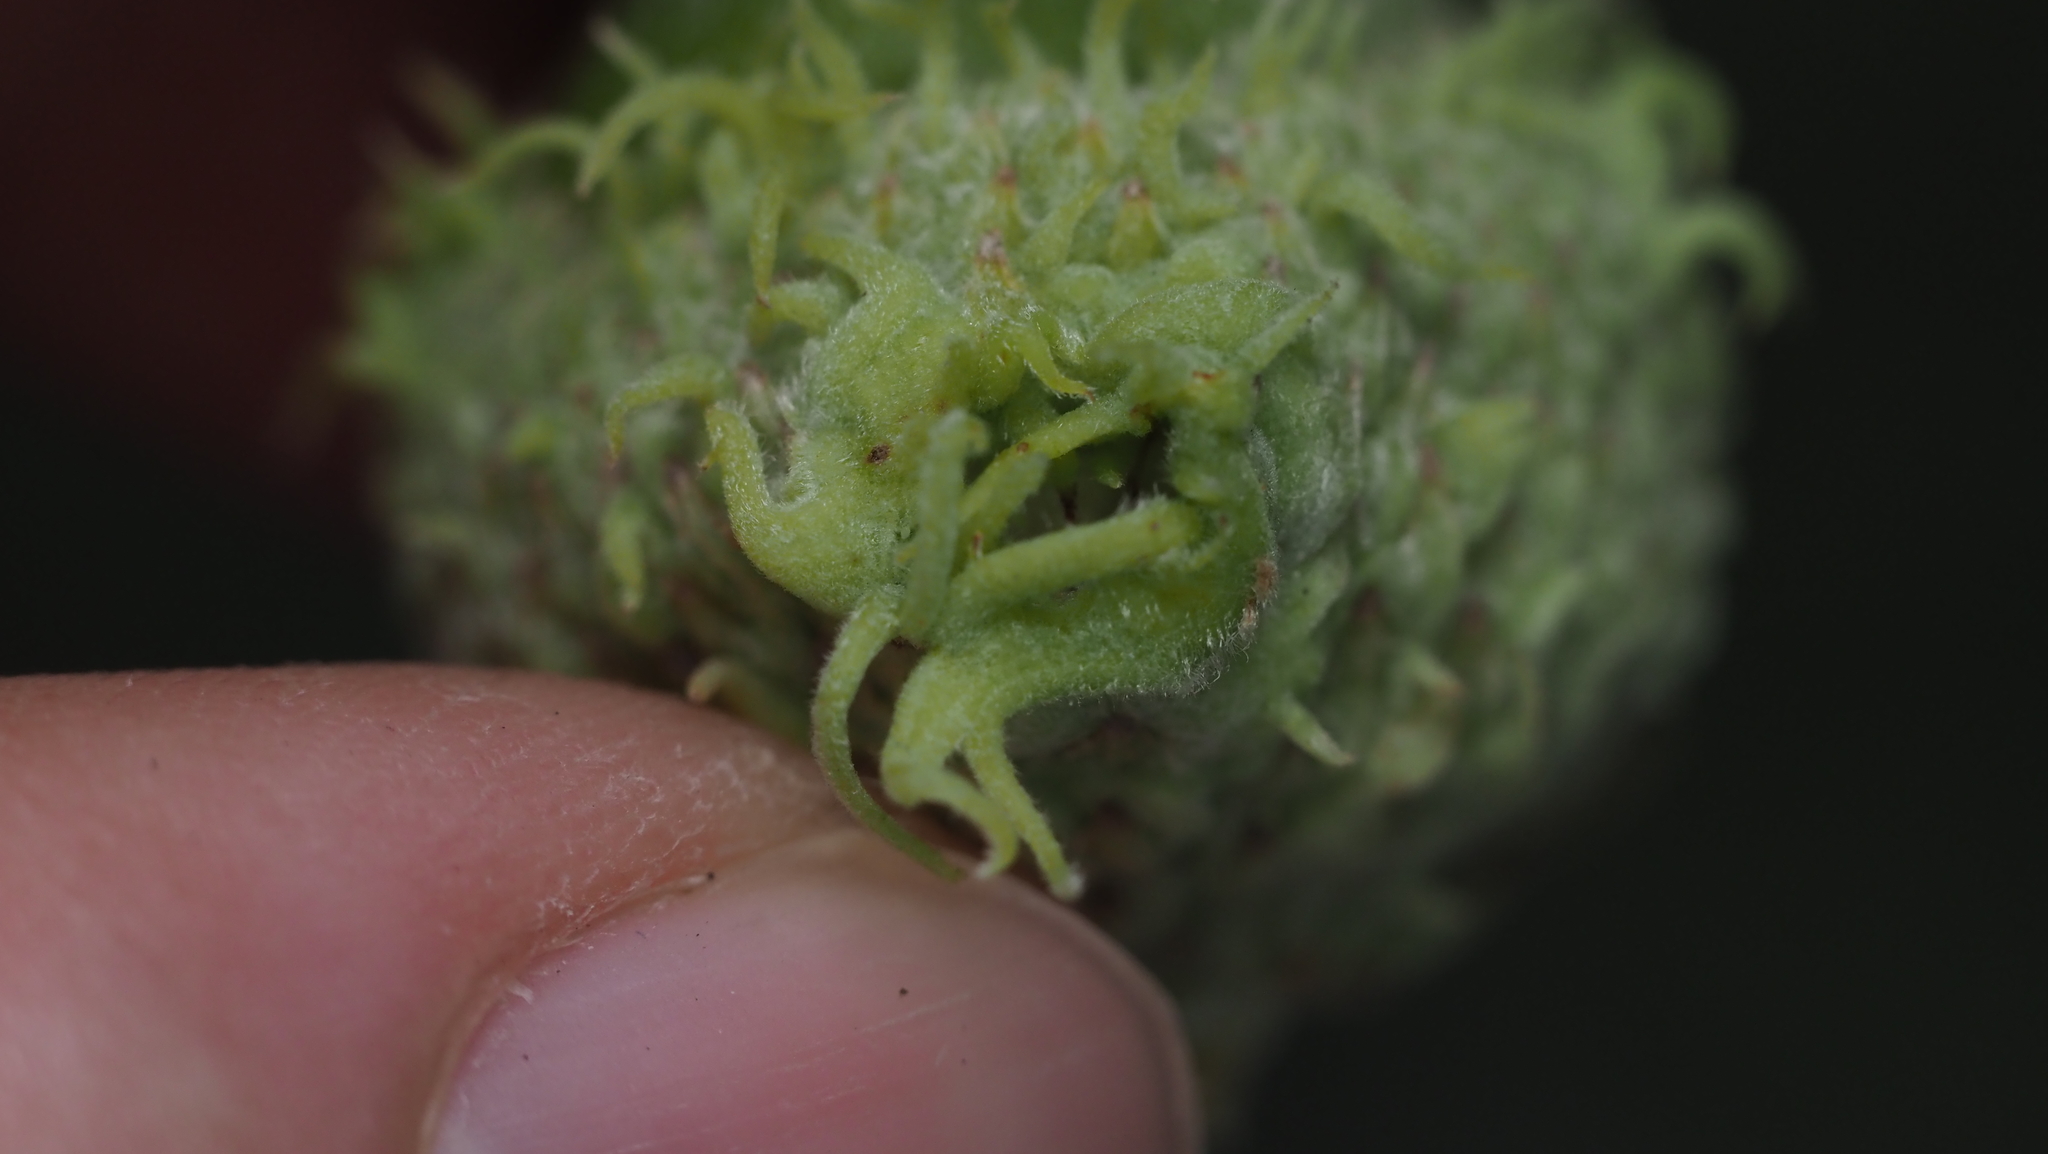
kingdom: Animalia
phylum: Arthropoda
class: Insecta
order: Hymenoptera
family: Cynipidae
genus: Callirhytis
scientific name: Callirhytis glandium
